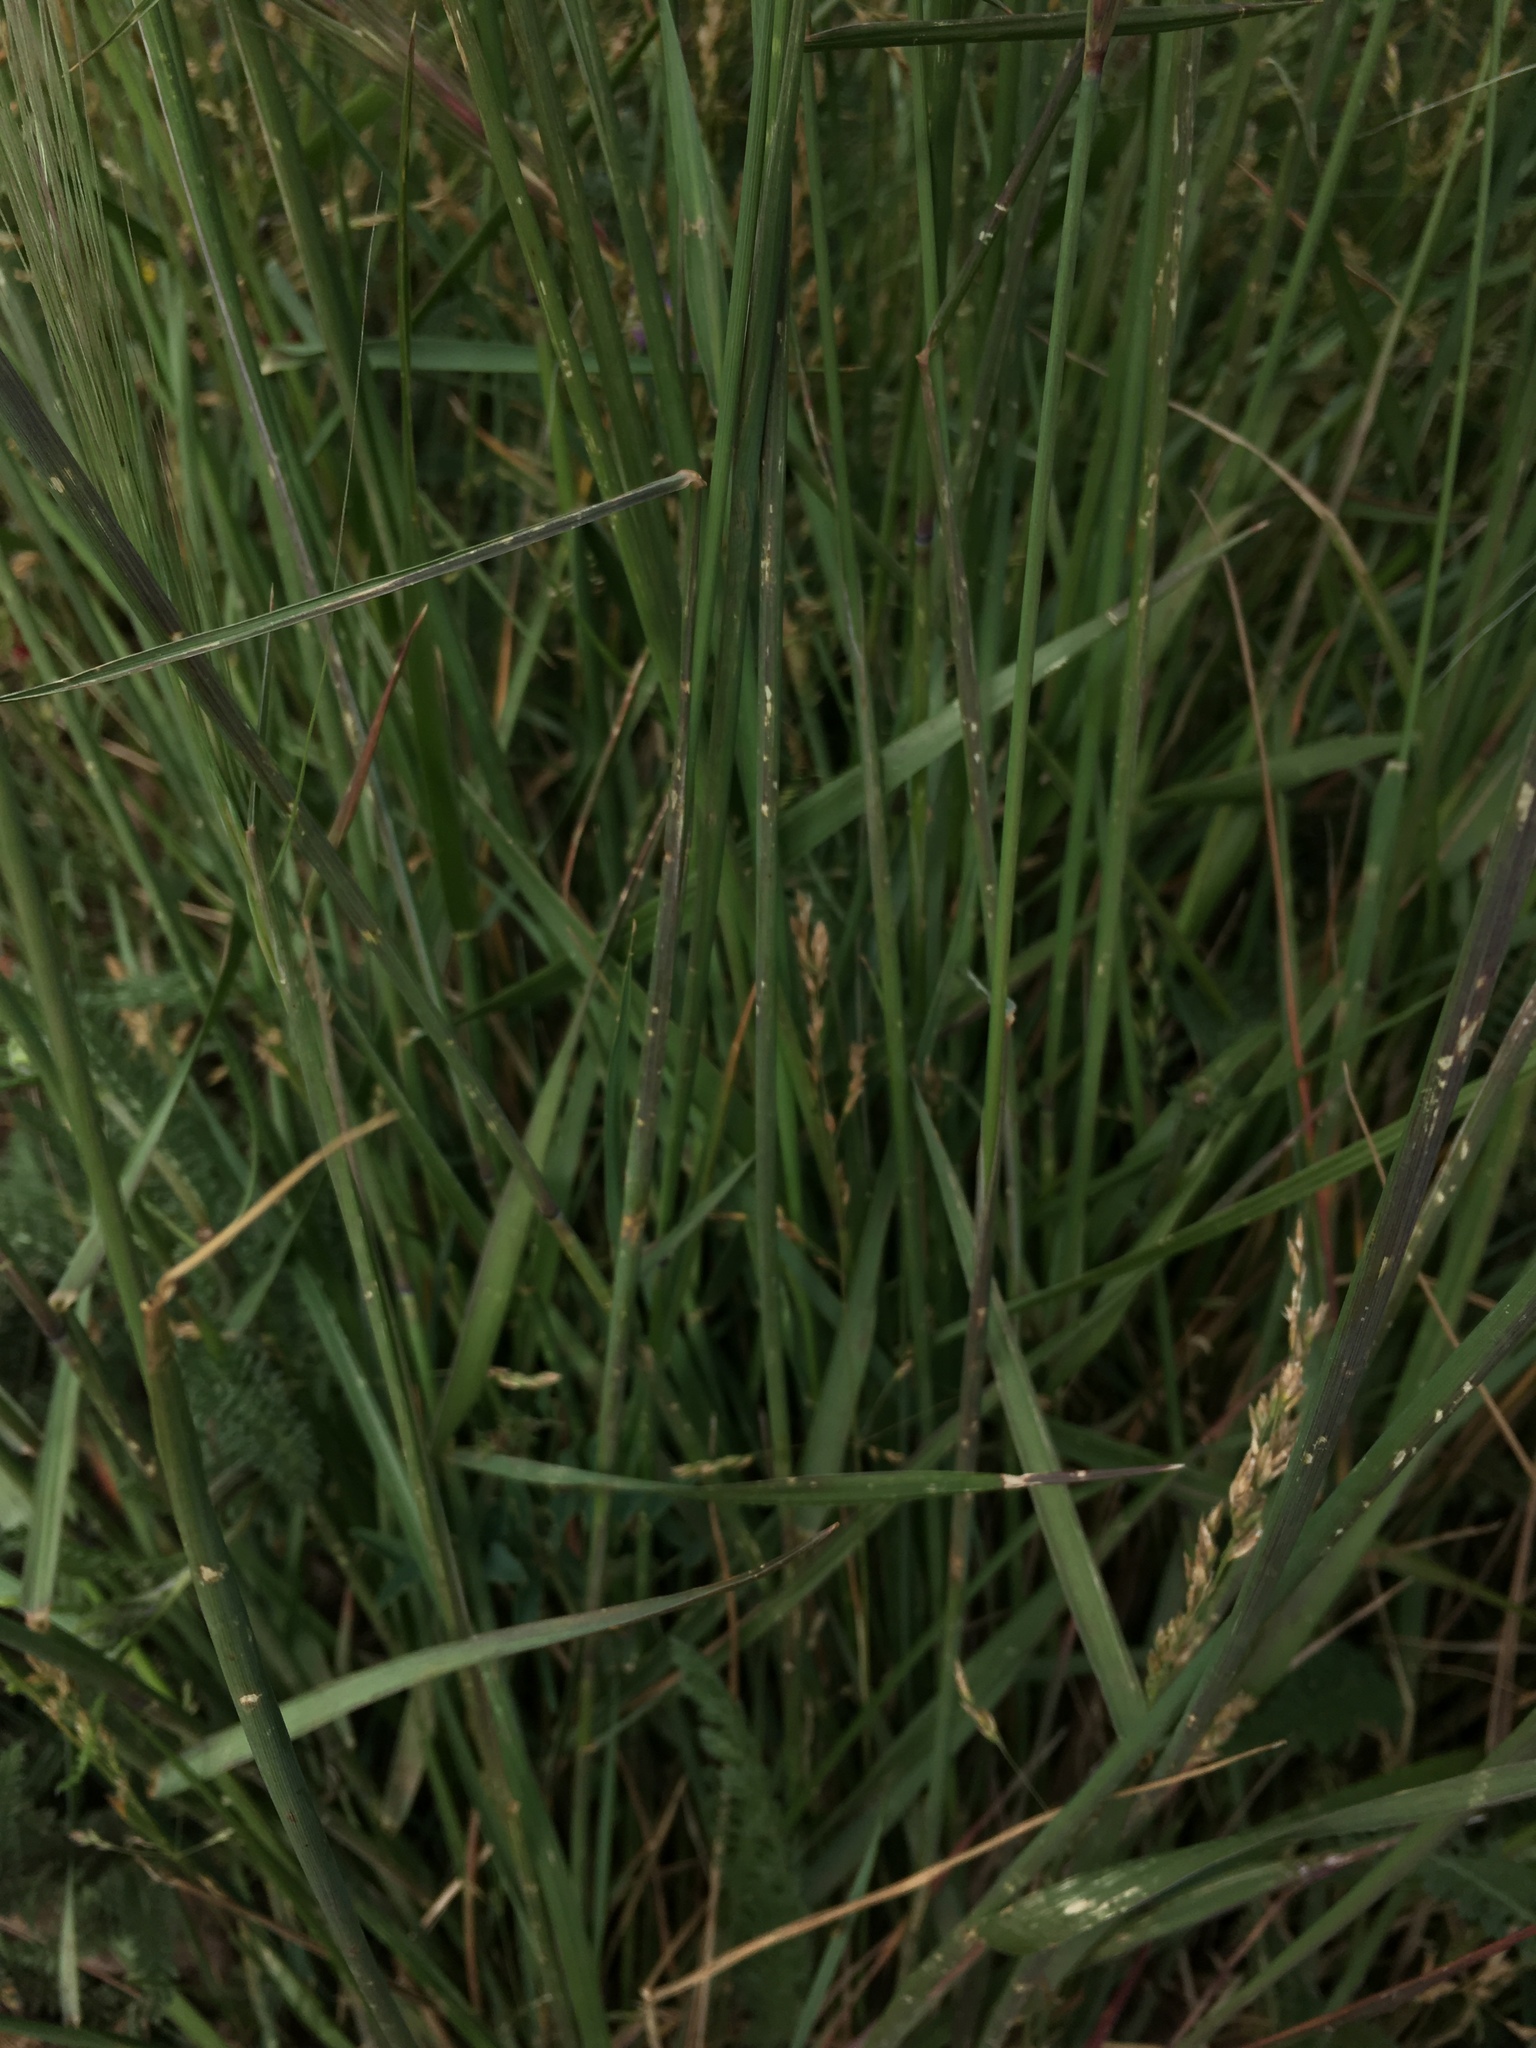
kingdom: Plantae
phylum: Tracheophyta
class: Liliopsida
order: Poales
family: Poaceae
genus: Elymus
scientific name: Elymus elymoides
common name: Bottlebrush squirreltail
